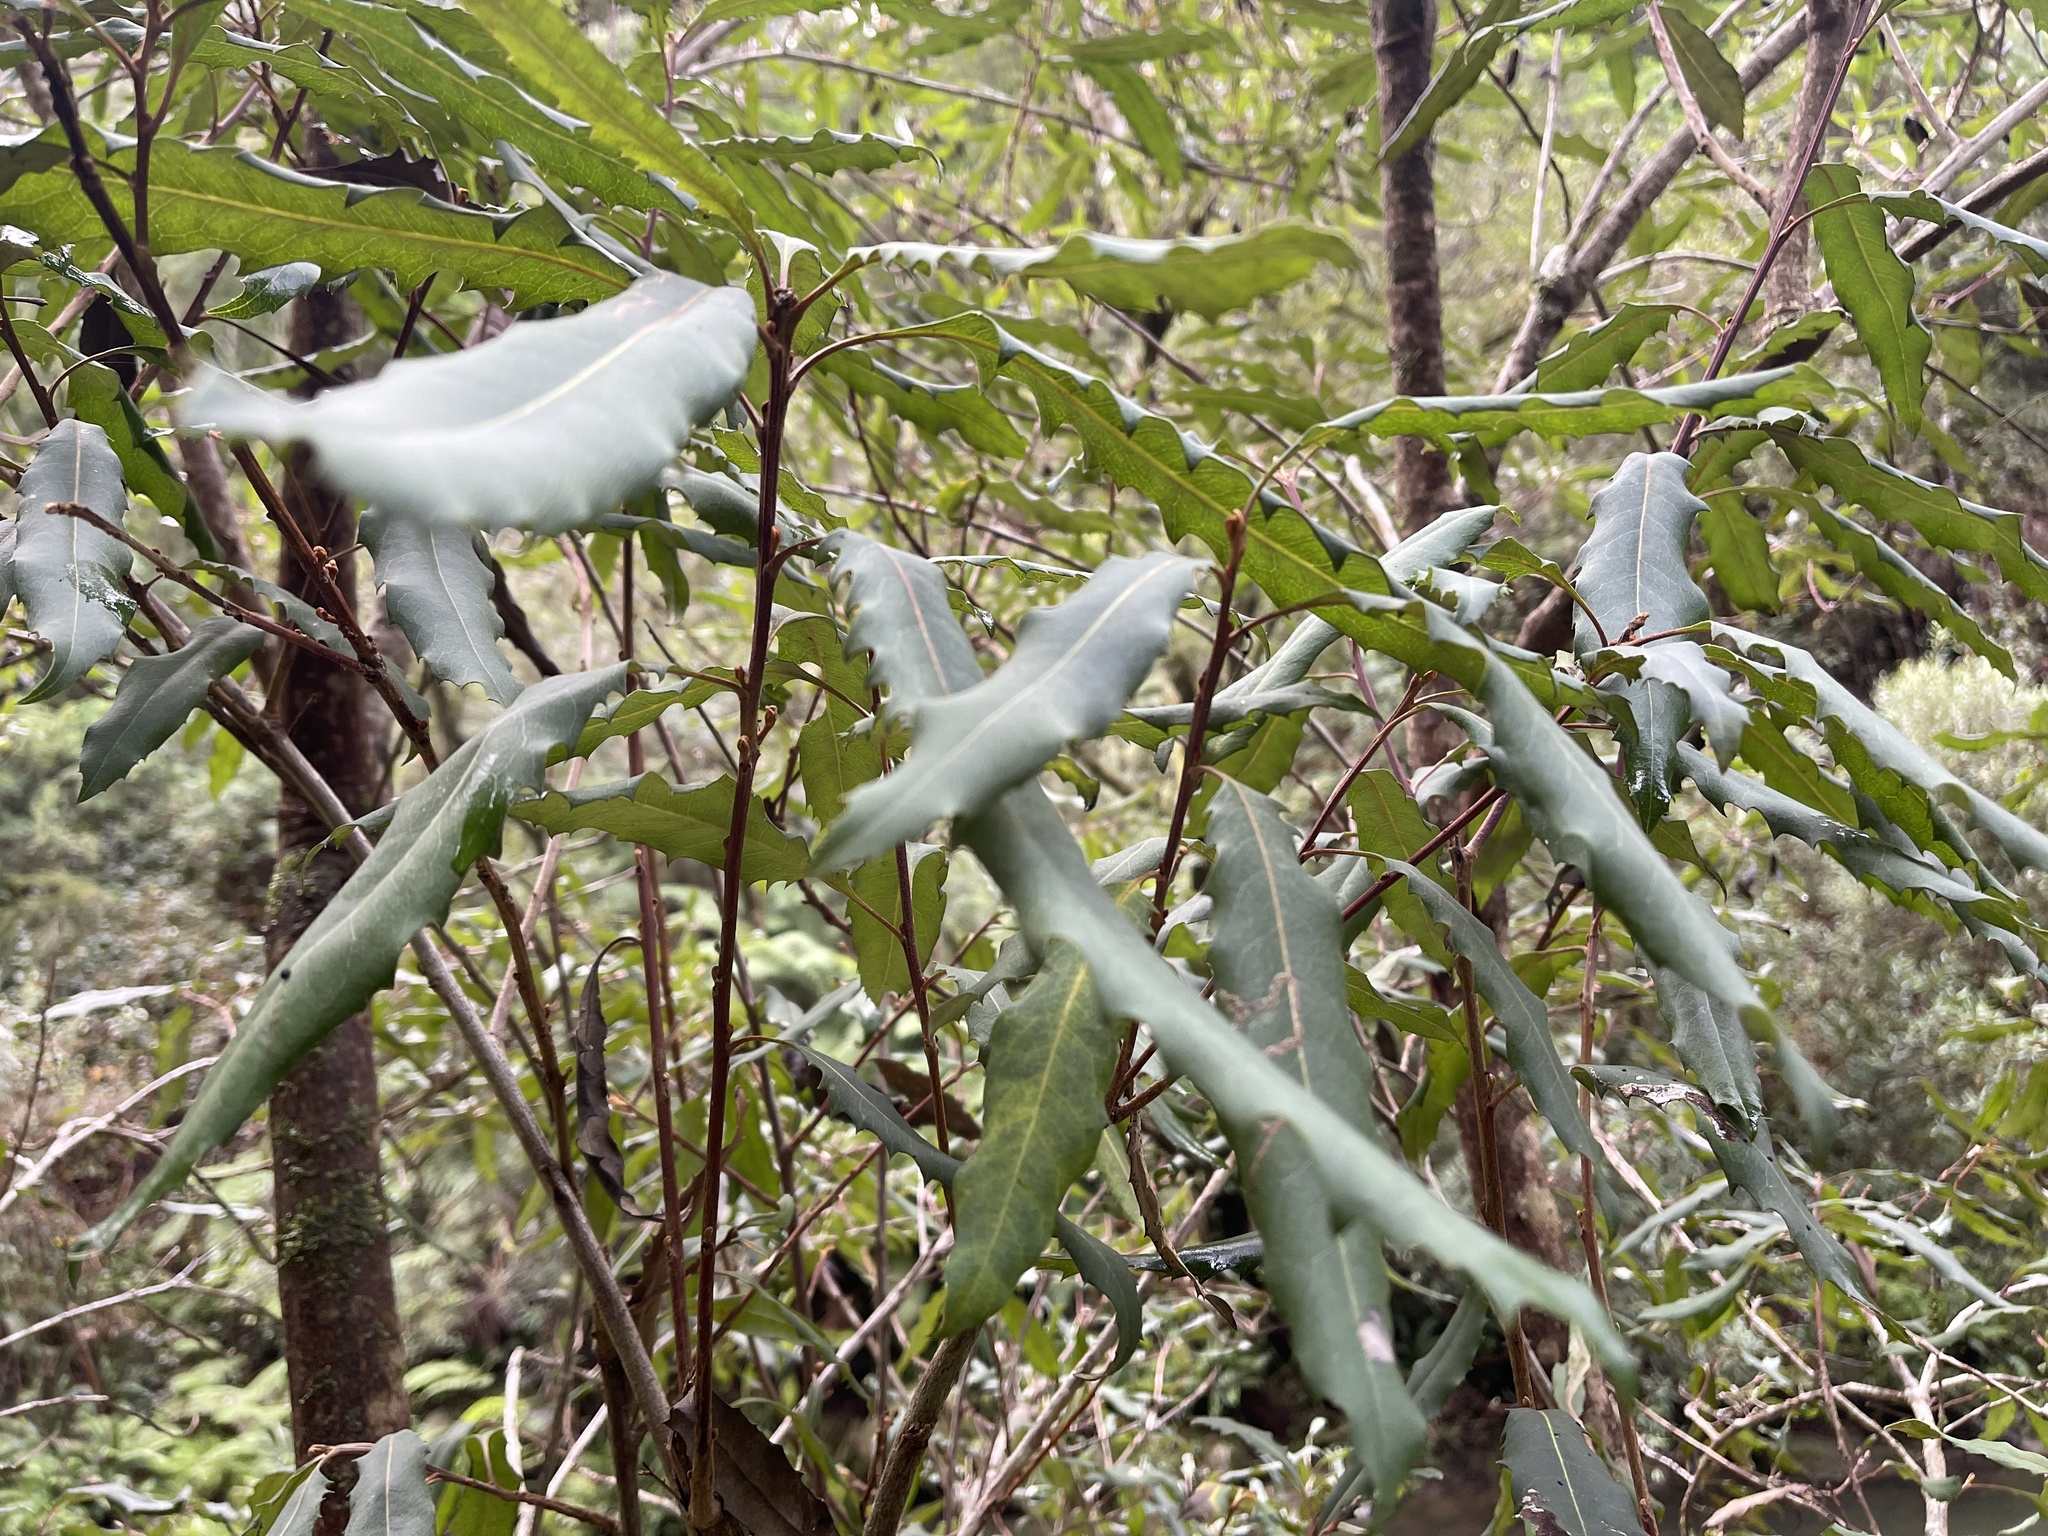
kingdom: Plantae
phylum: Tracheophyta
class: Magnoliopsida
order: Proteales
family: Proteaceae
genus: Lomatia
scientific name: Lomatia fraseri
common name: Forest lomatia
